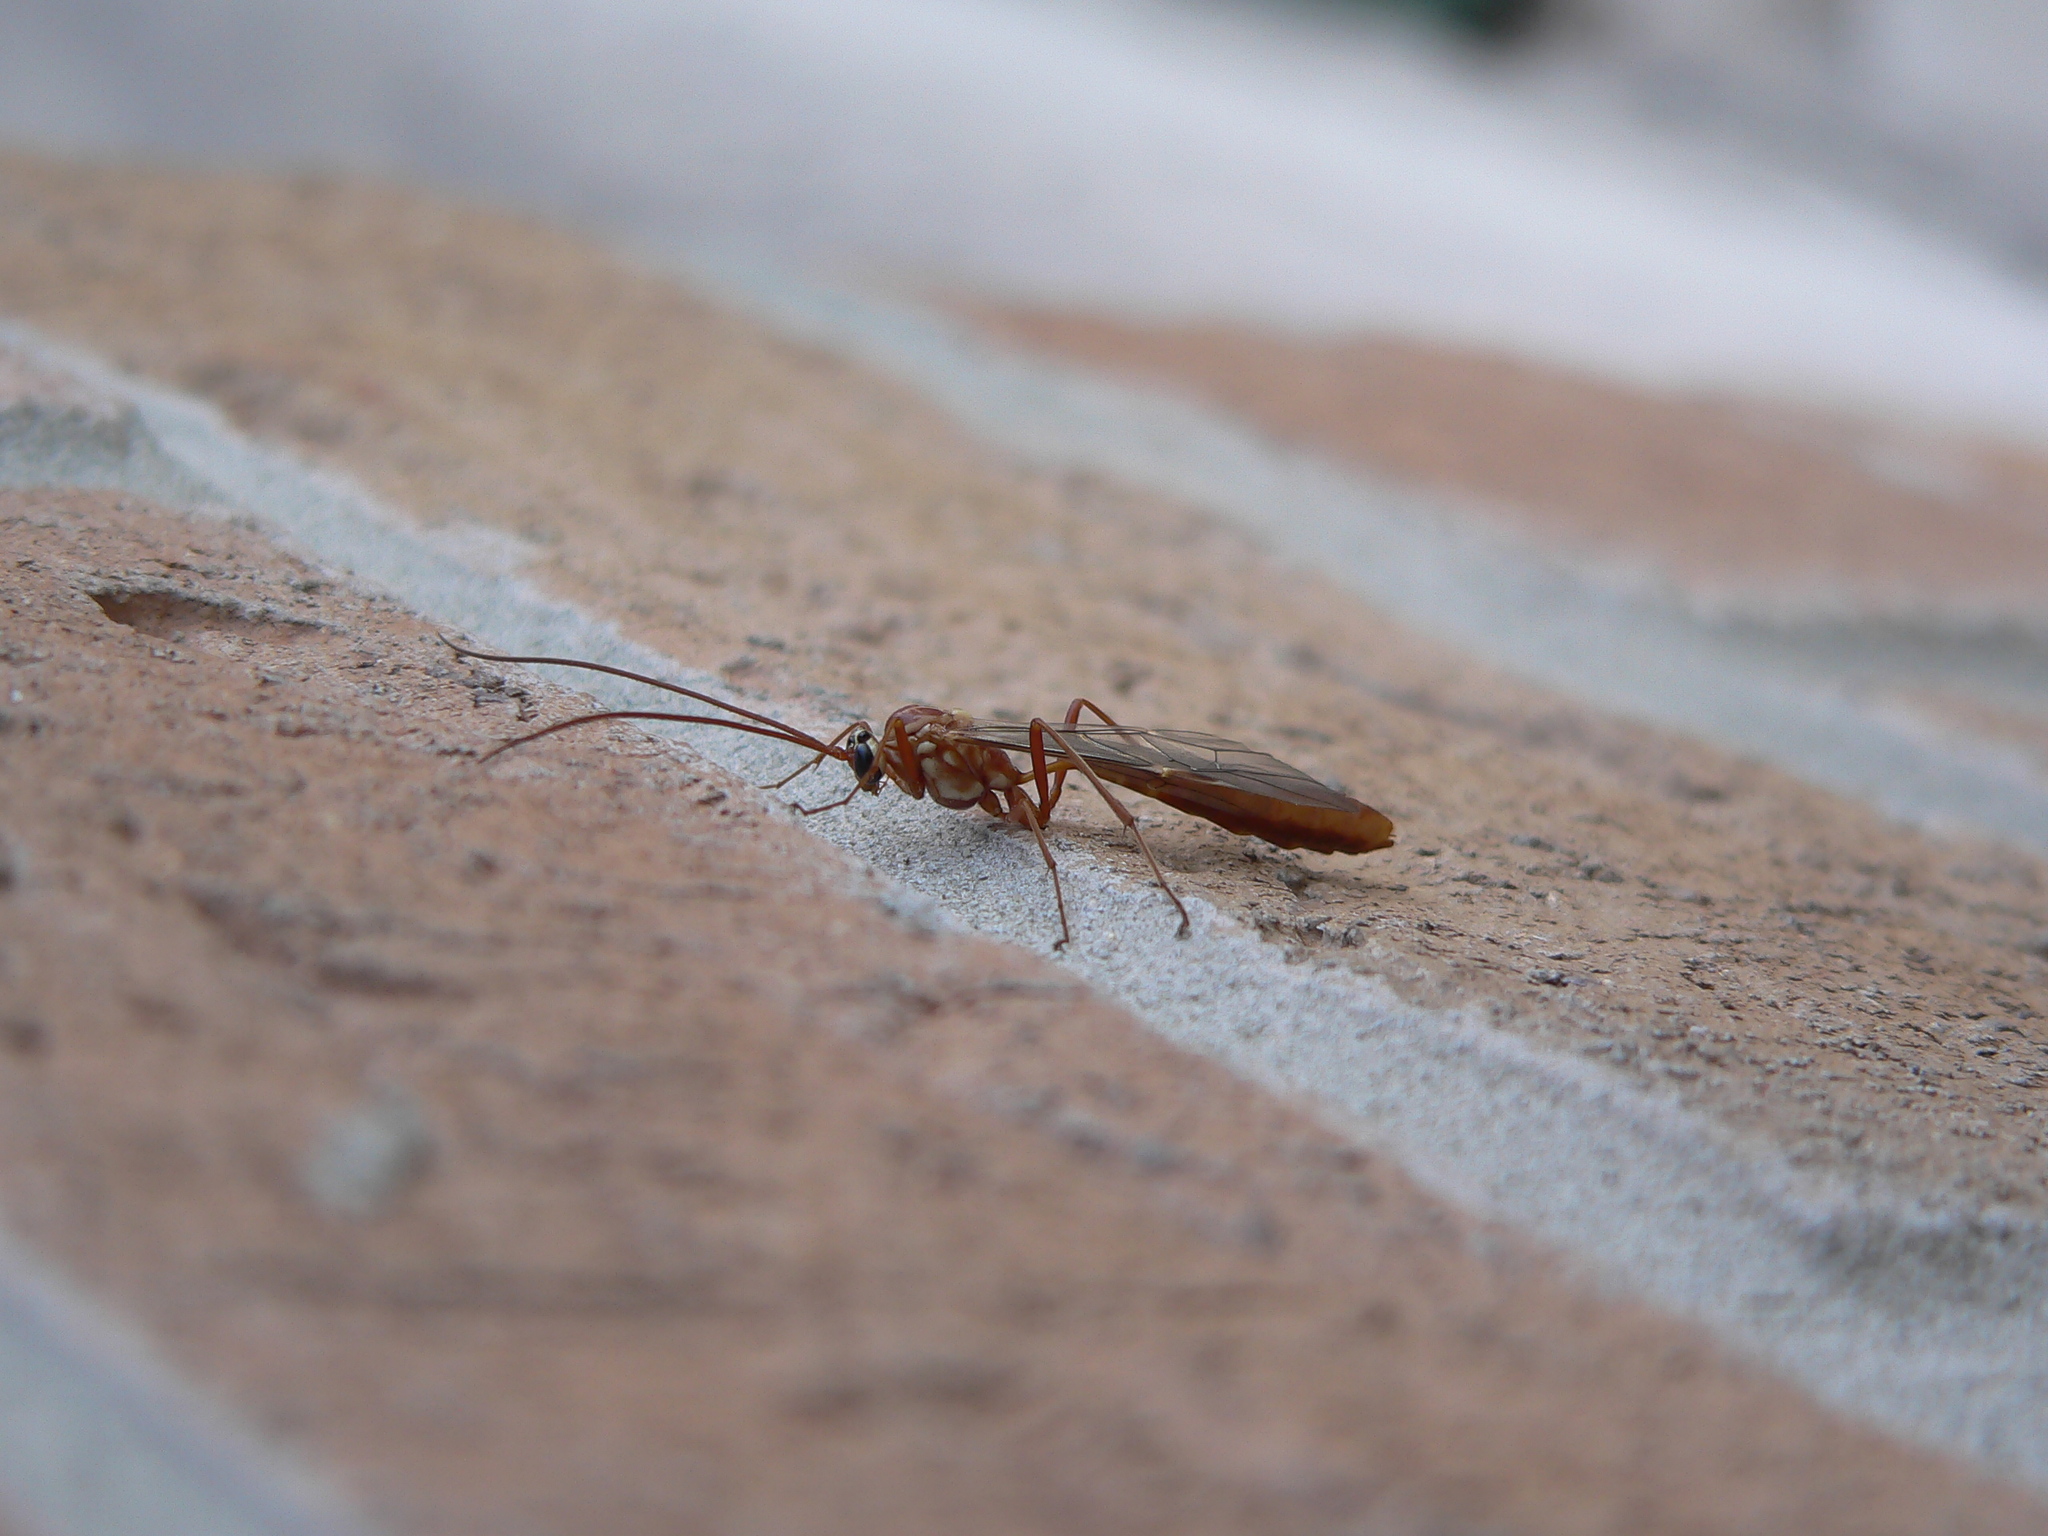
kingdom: Animalia
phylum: Arthropoda
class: Insecta
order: Hymenoptera
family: Ichneumonidae
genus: Ophion
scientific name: Ophion
